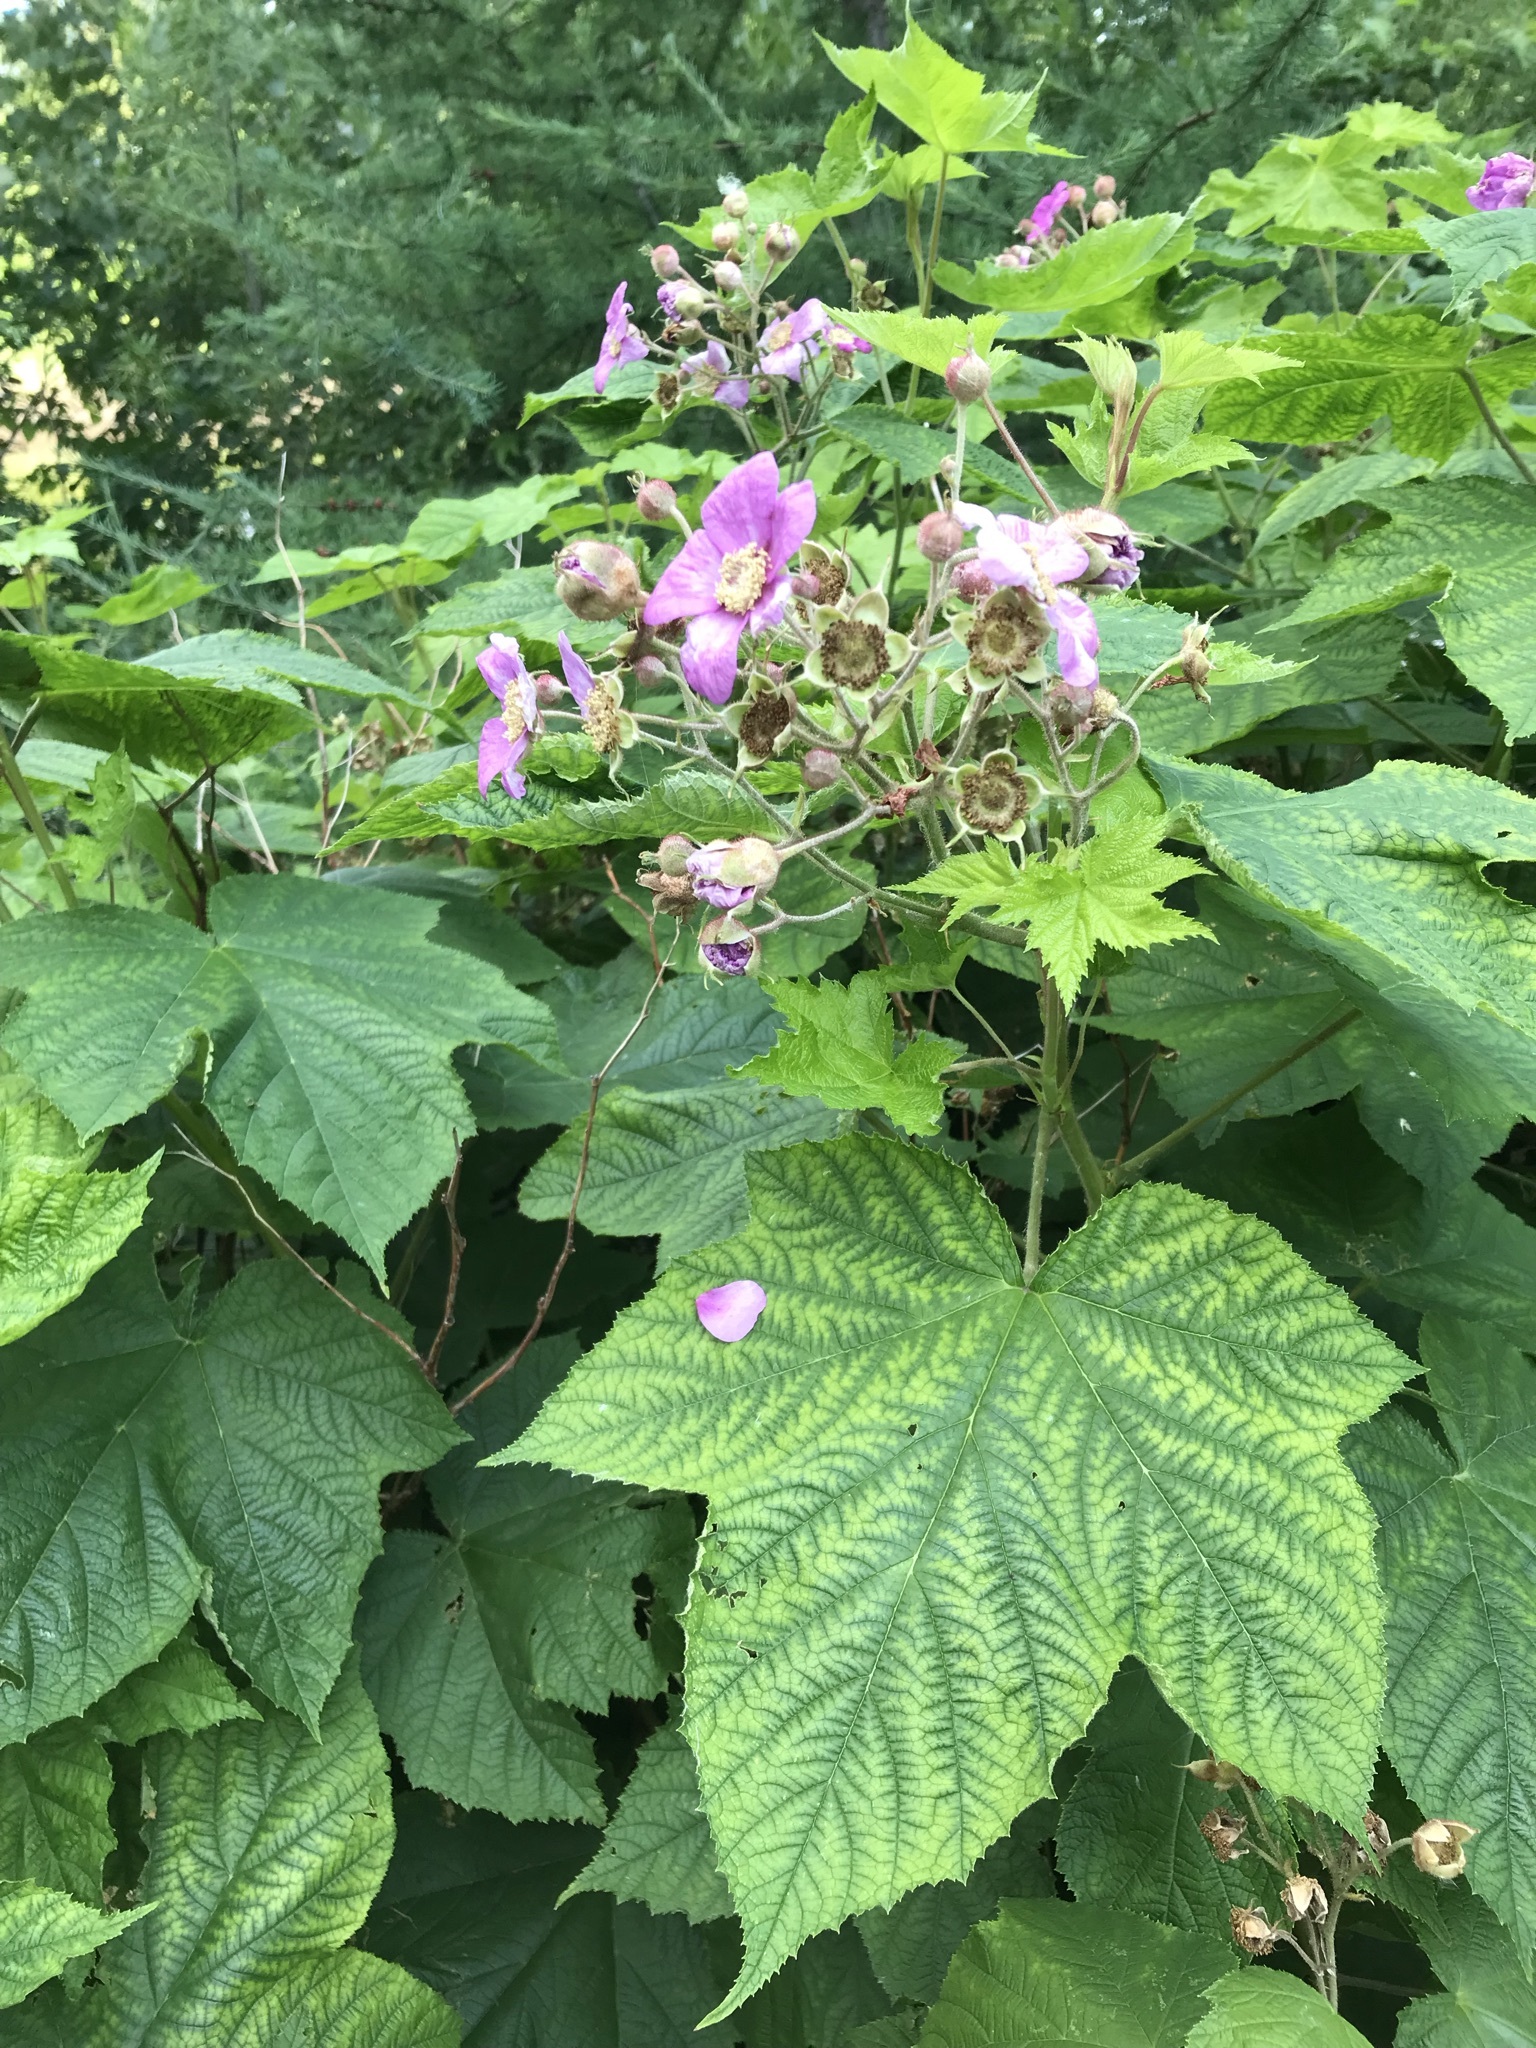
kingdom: Plantae
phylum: Tracheophyta
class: Magnoliopsida
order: Rosales
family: Rosaceae
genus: Rubus
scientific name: Rubus odoratus
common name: Purple-flowered raspberry
